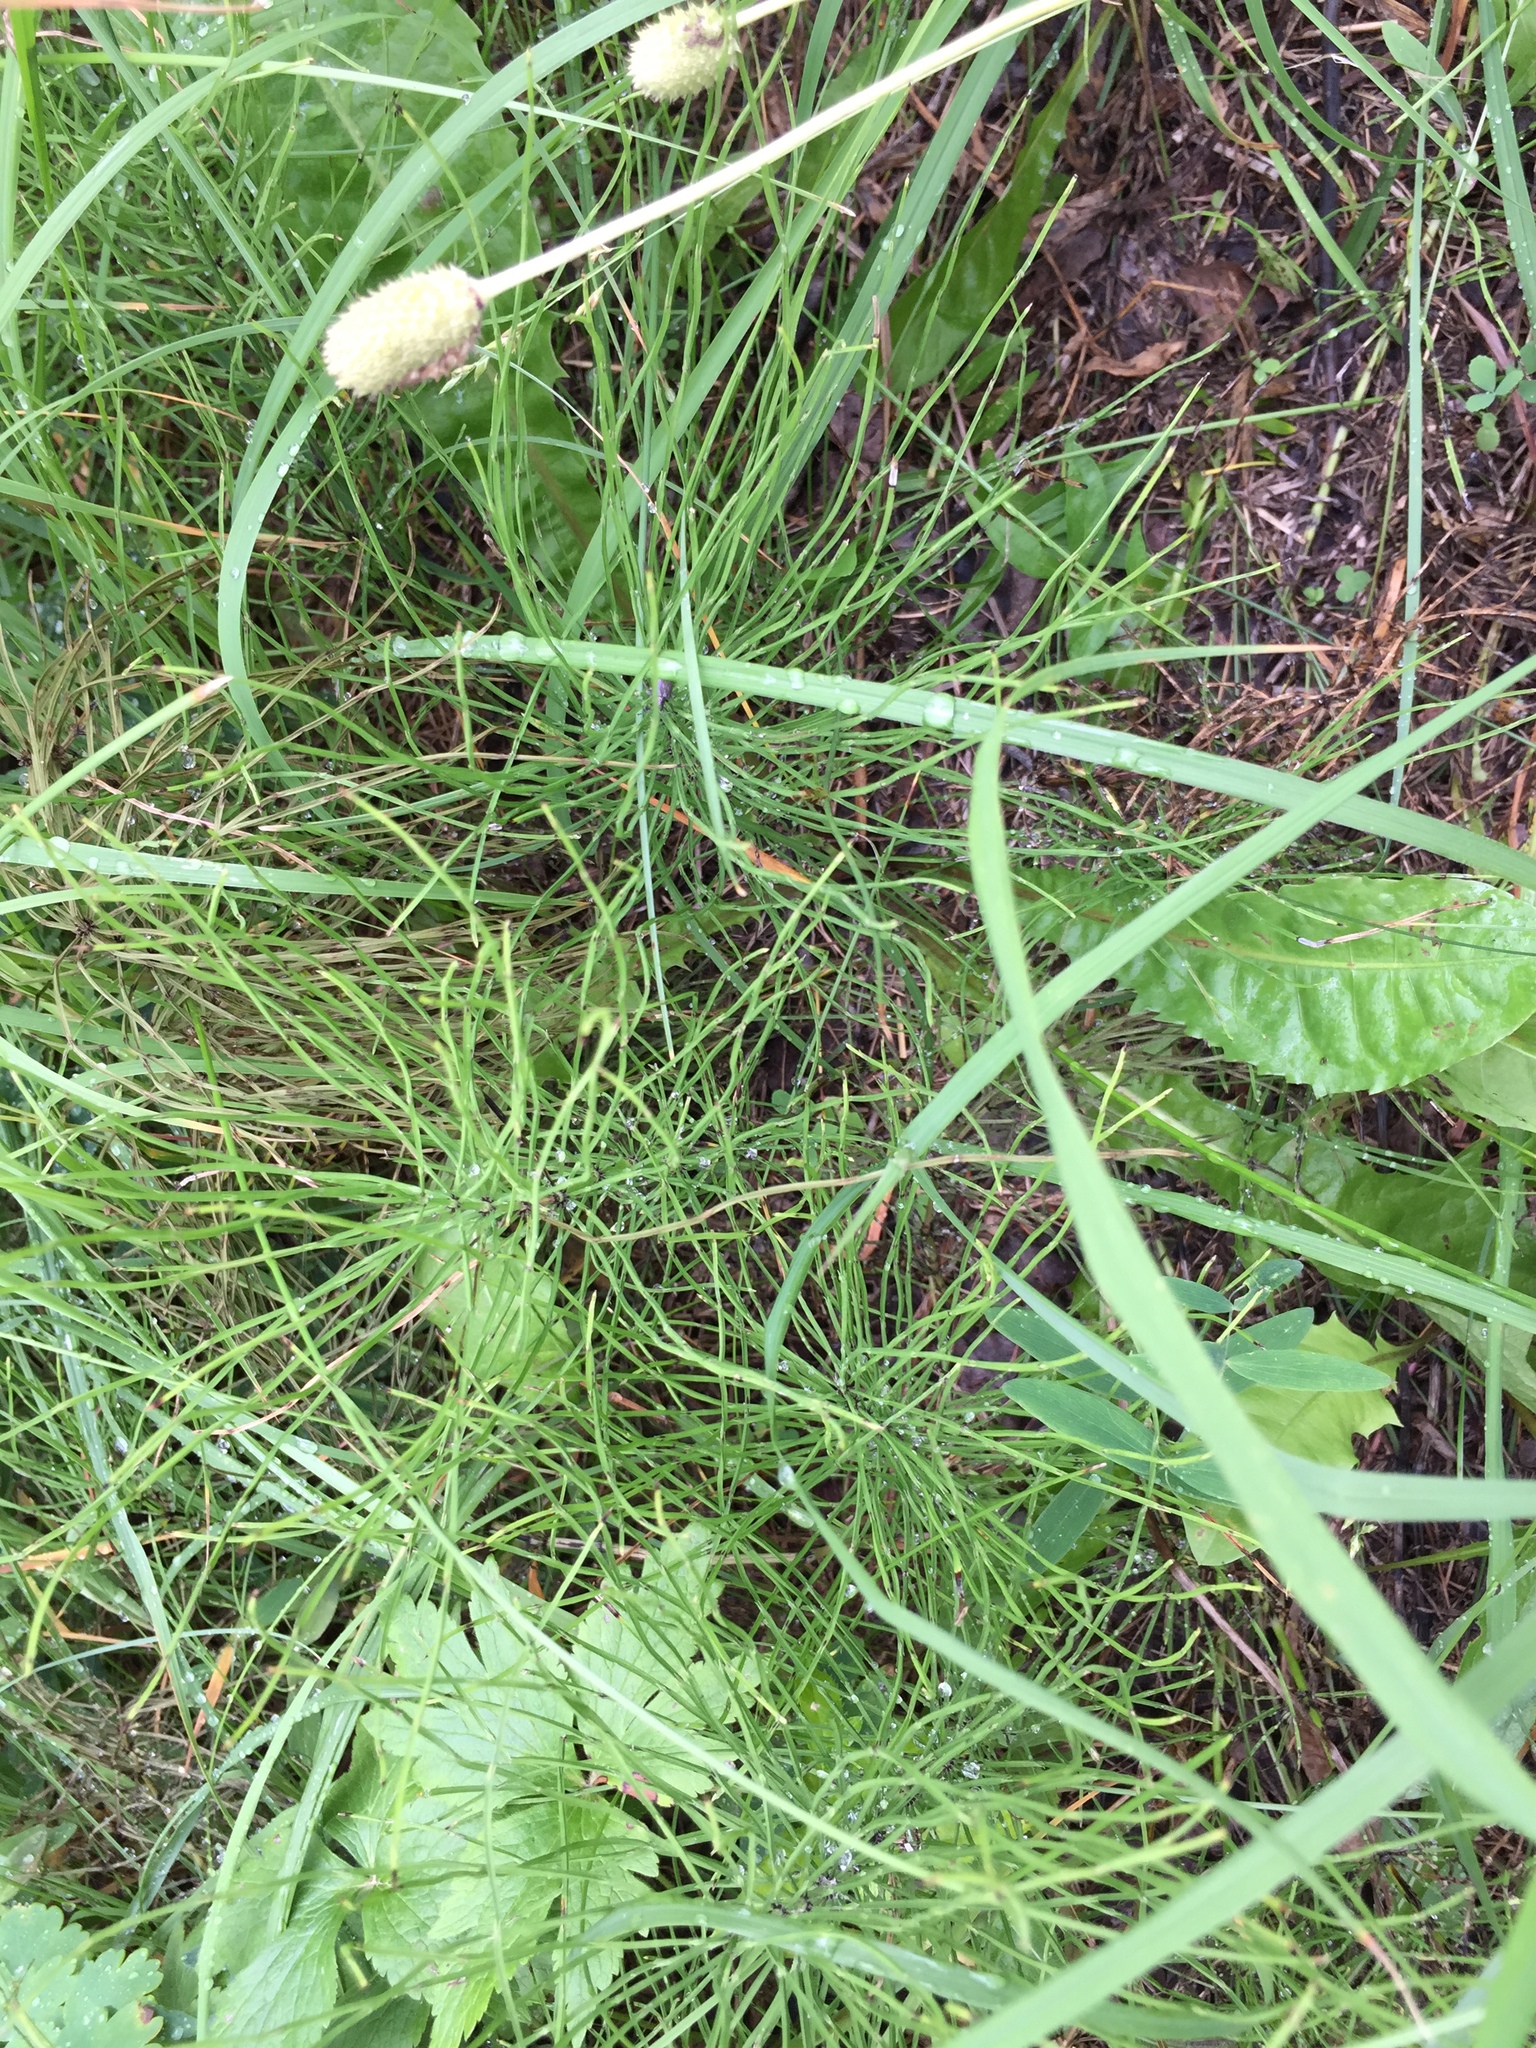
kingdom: Plantae
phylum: Tracheophyta
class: Polypodiopsida
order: Equisetales
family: Equisetaceae
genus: Equisetum
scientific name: Equisetum arvense
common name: Field horsetail
